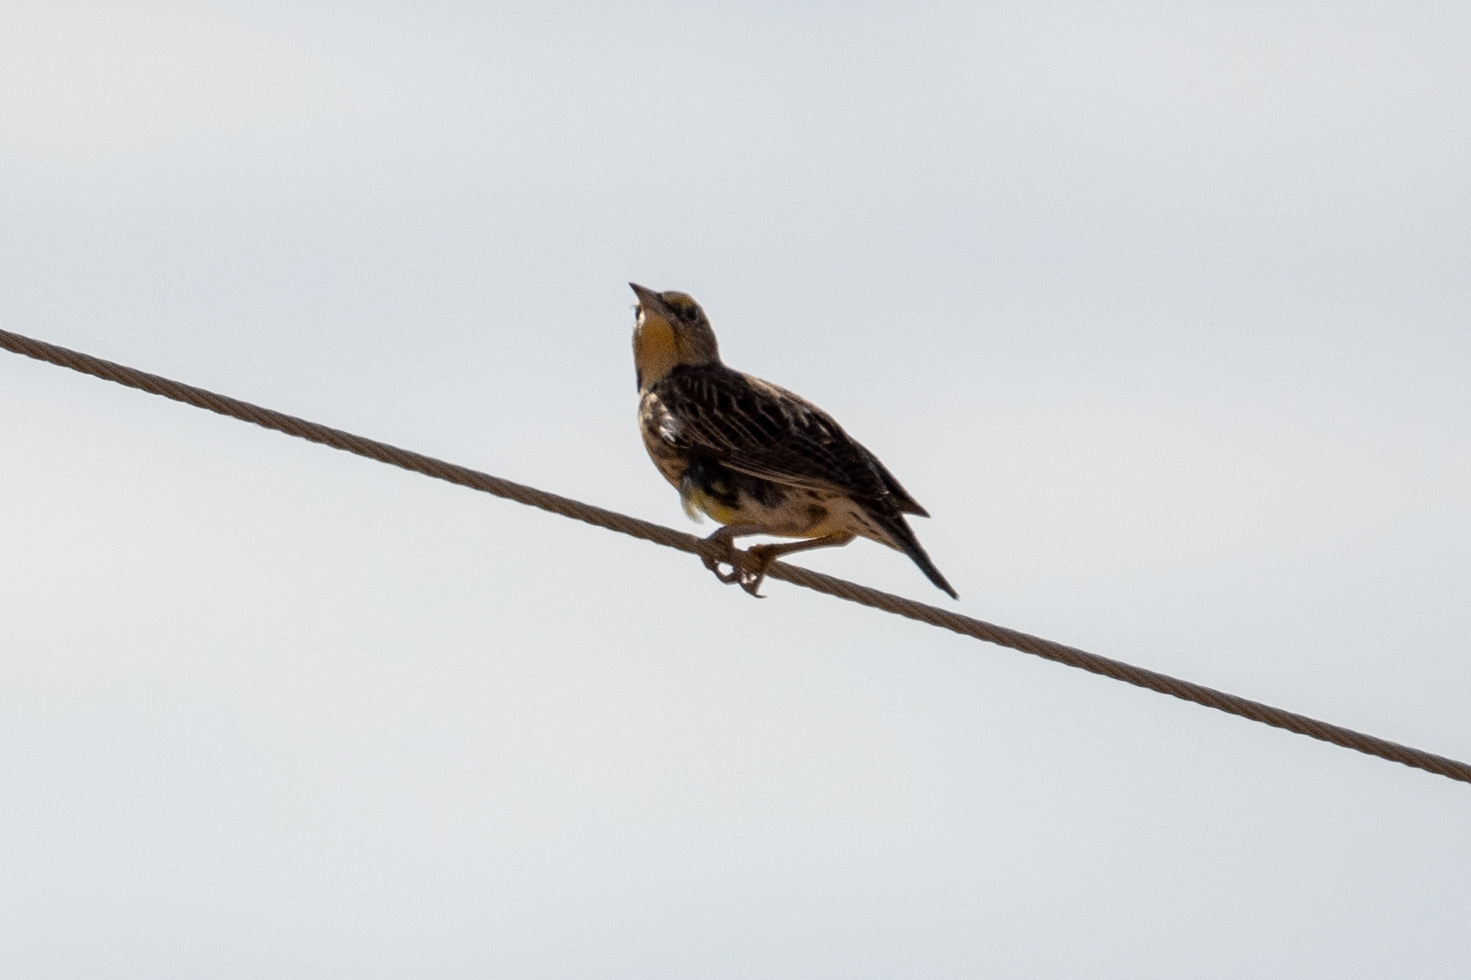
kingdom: Animalia
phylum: Chordata
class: Aves
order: Passeriformes
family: Icteridae
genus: Sturnella
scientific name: Sturnella neglecta
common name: Western meadowlark
